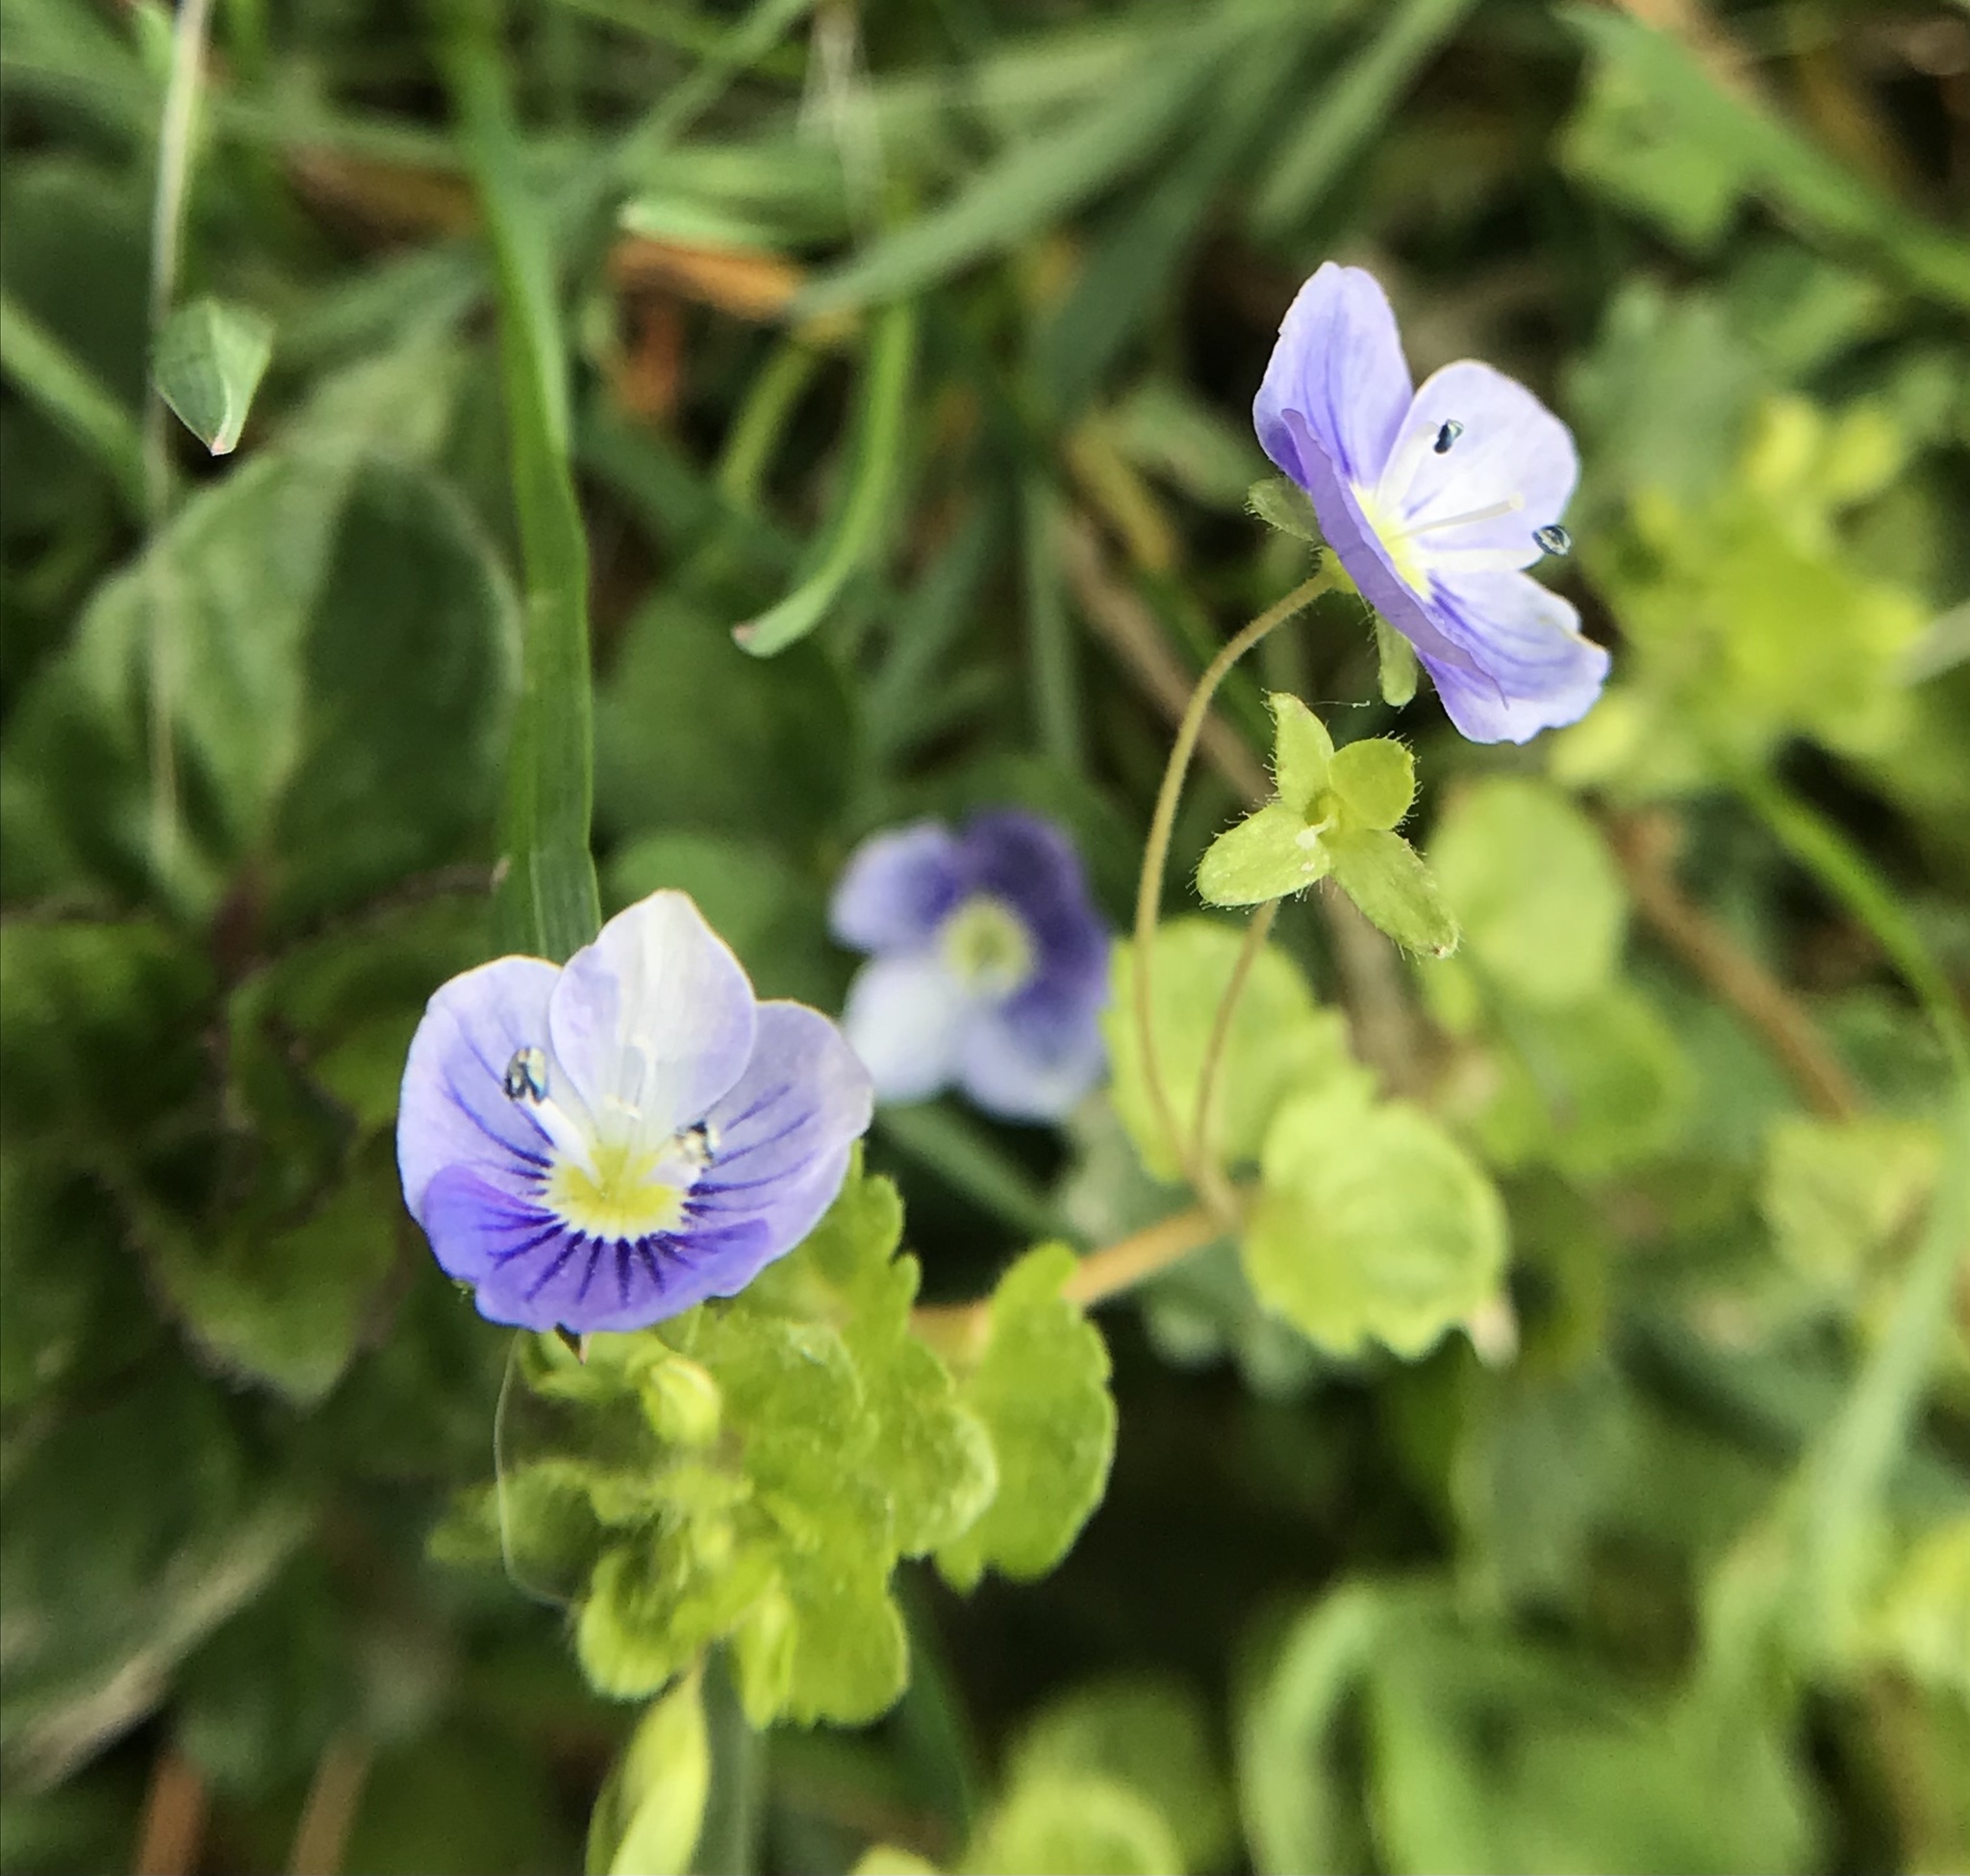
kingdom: Plantae
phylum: Tracheophyta
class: Magnoliopsida
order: Lamiales
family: Plantaginaceae
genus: Veronica
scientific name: Veronica filiformis
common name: Slender speedwell
